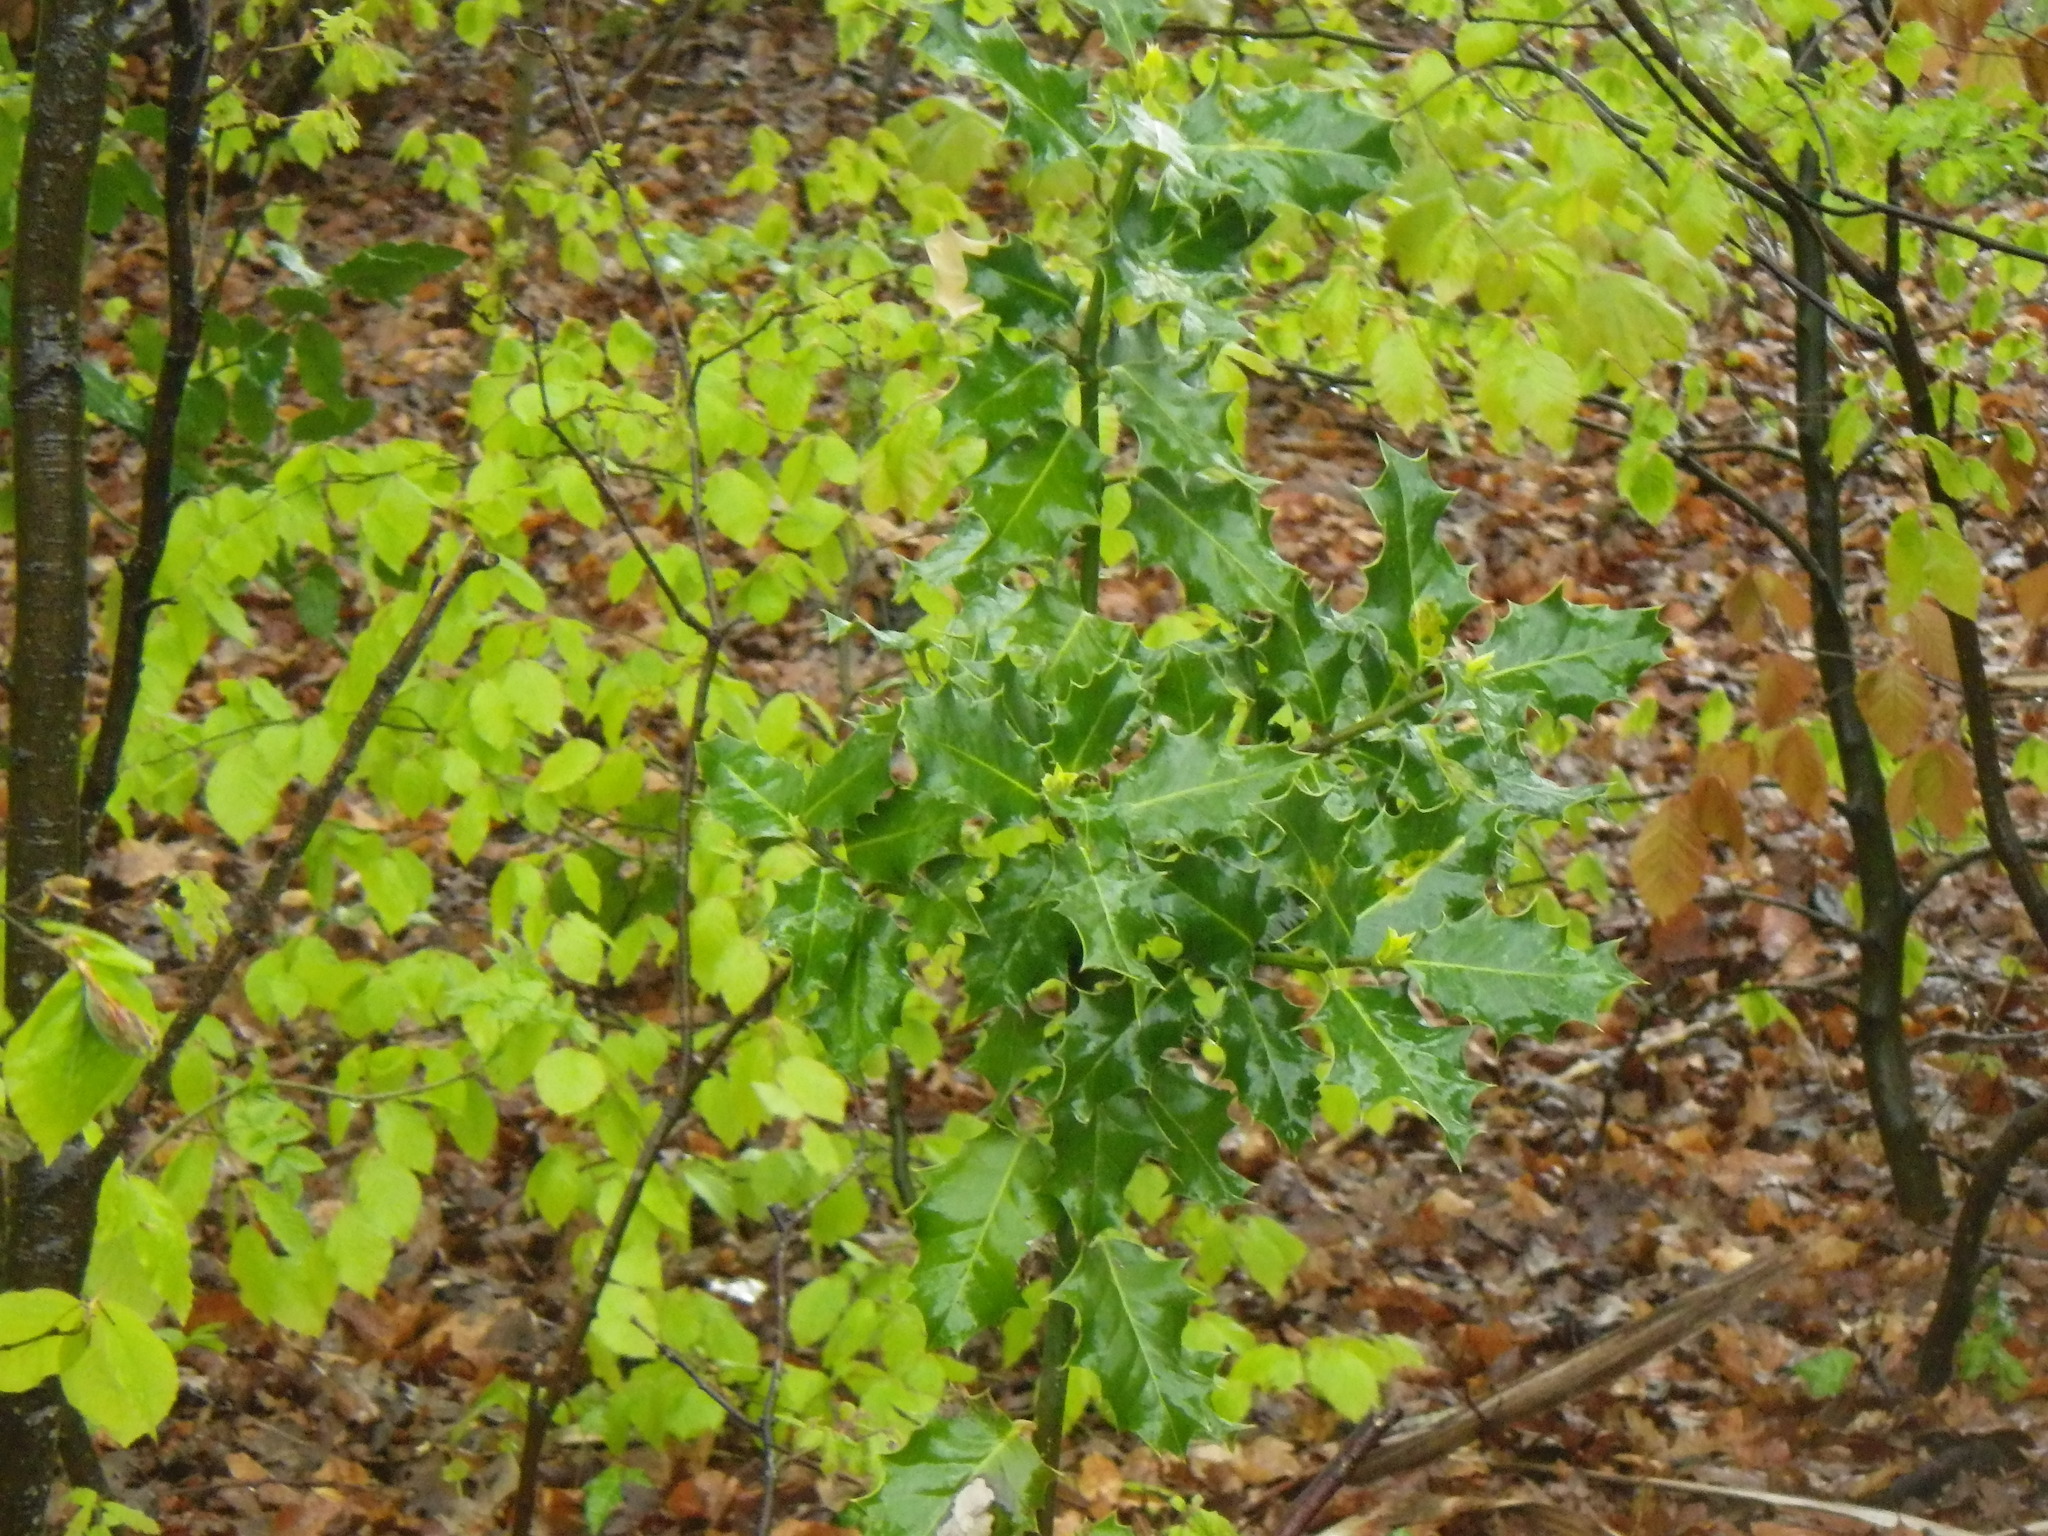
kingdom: Plantae
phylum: Tracheophyta
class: Magnoliopsida
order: Aquifoliales
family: Aquifoliaceae
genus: Ilex
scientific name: Ilex aquifolium
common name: English holly
